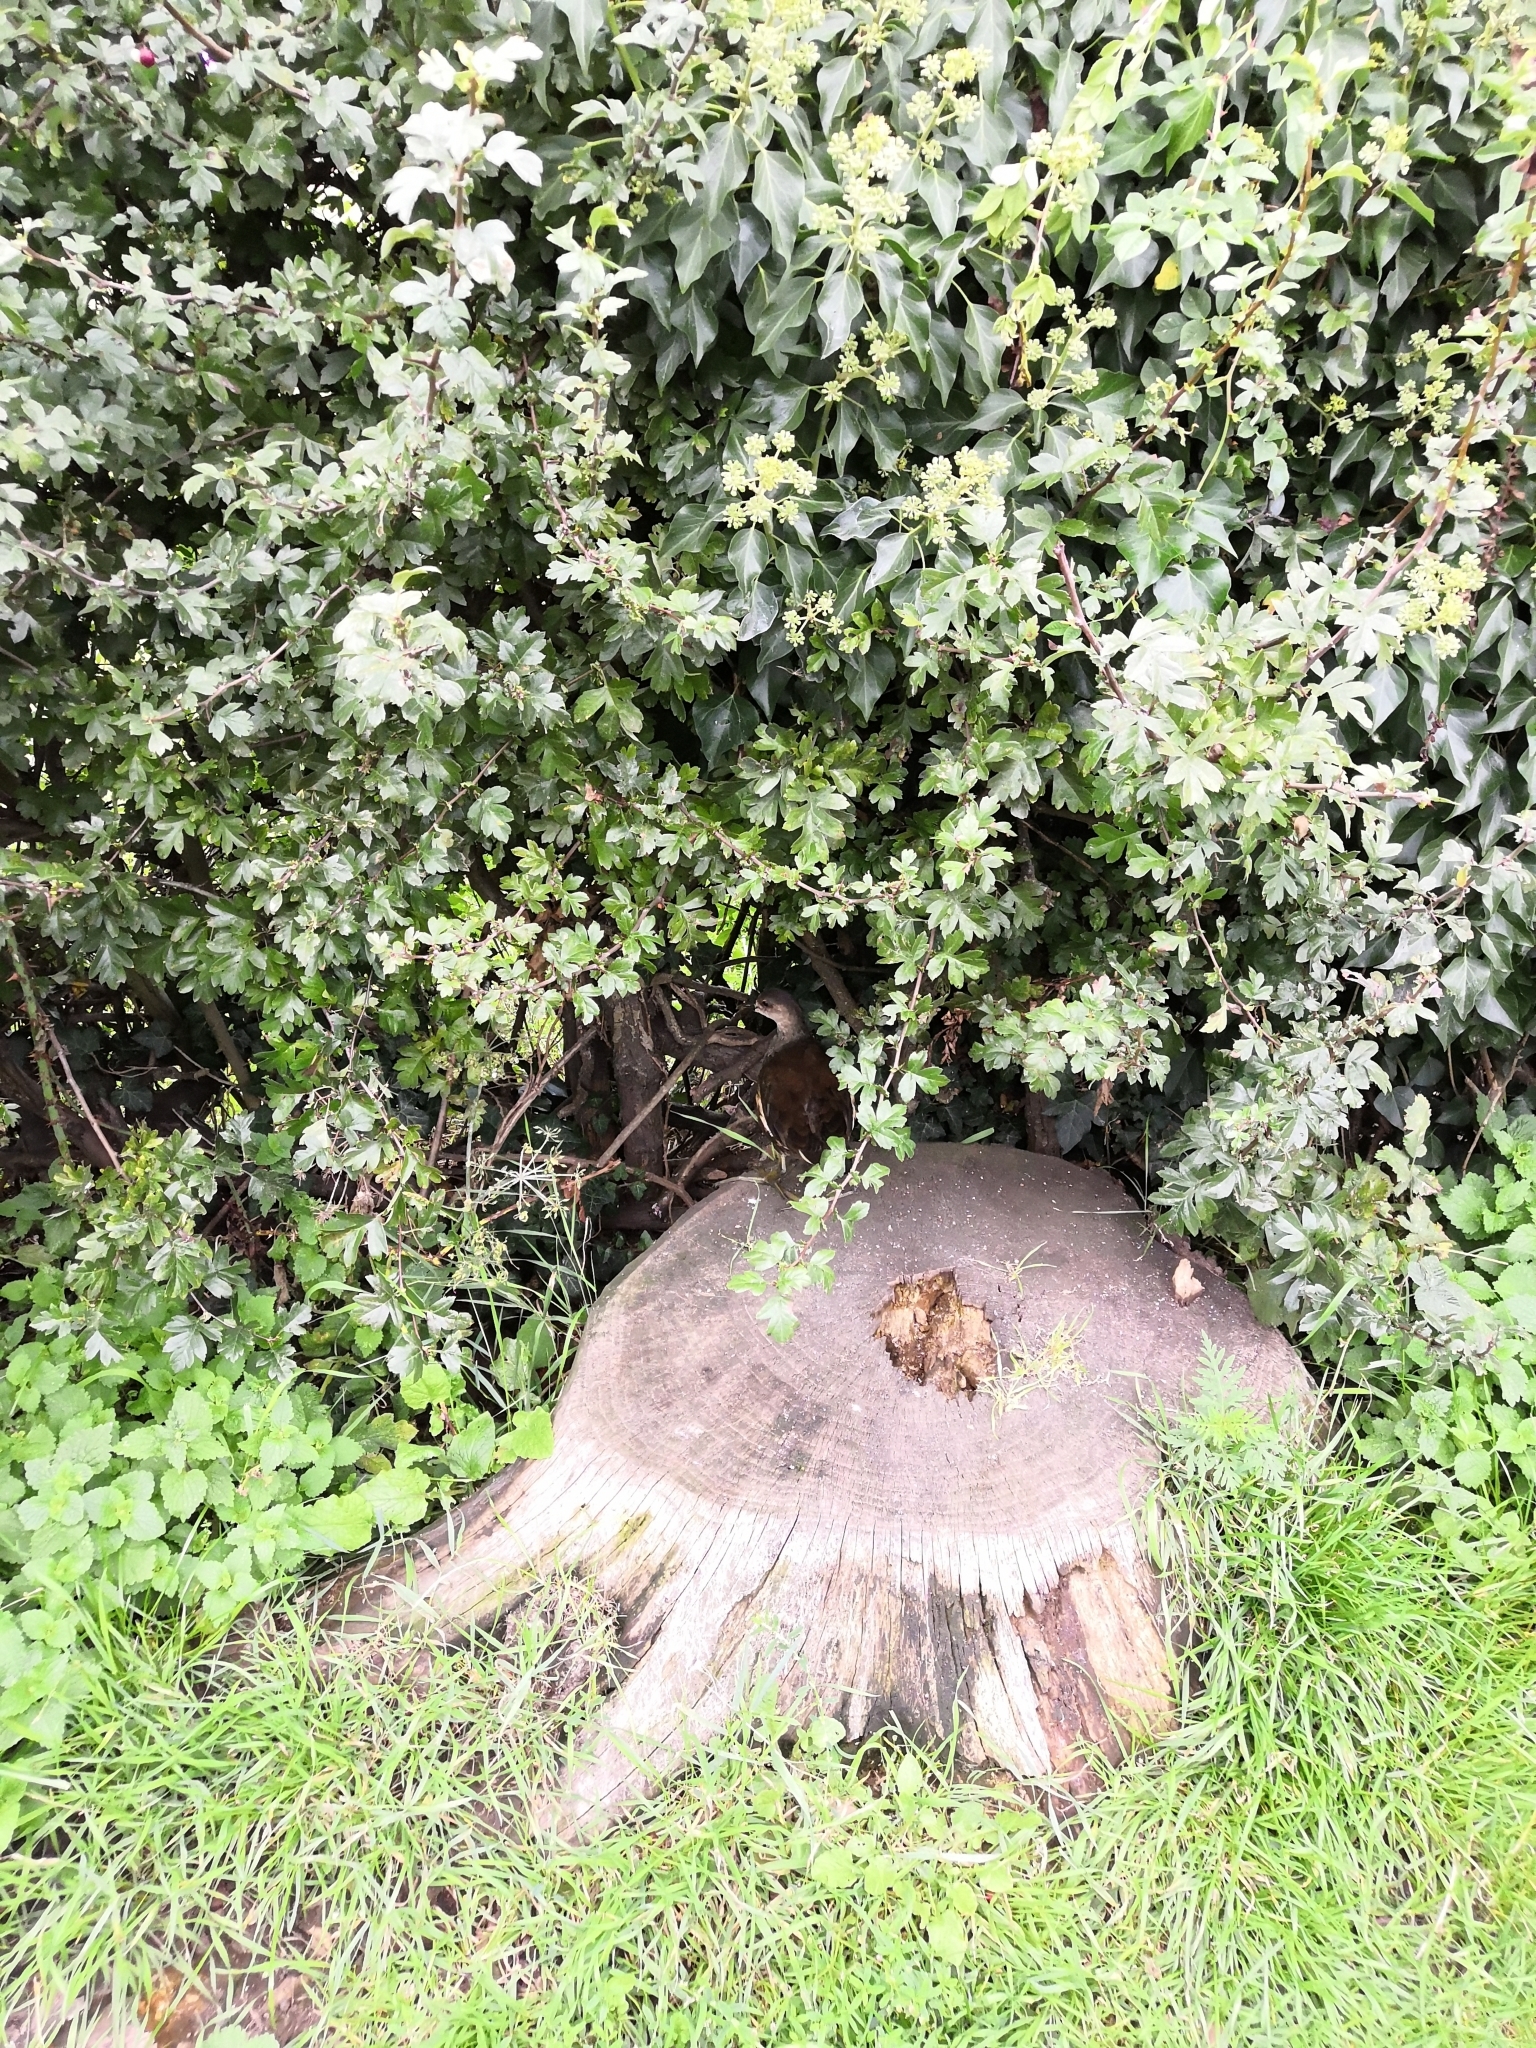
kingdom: Animalia
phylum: Chordata
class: Aves
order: Gruiformes
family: Rallidae
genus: Gallinula
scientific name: Gallinula chloropus
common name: Common moorhen
